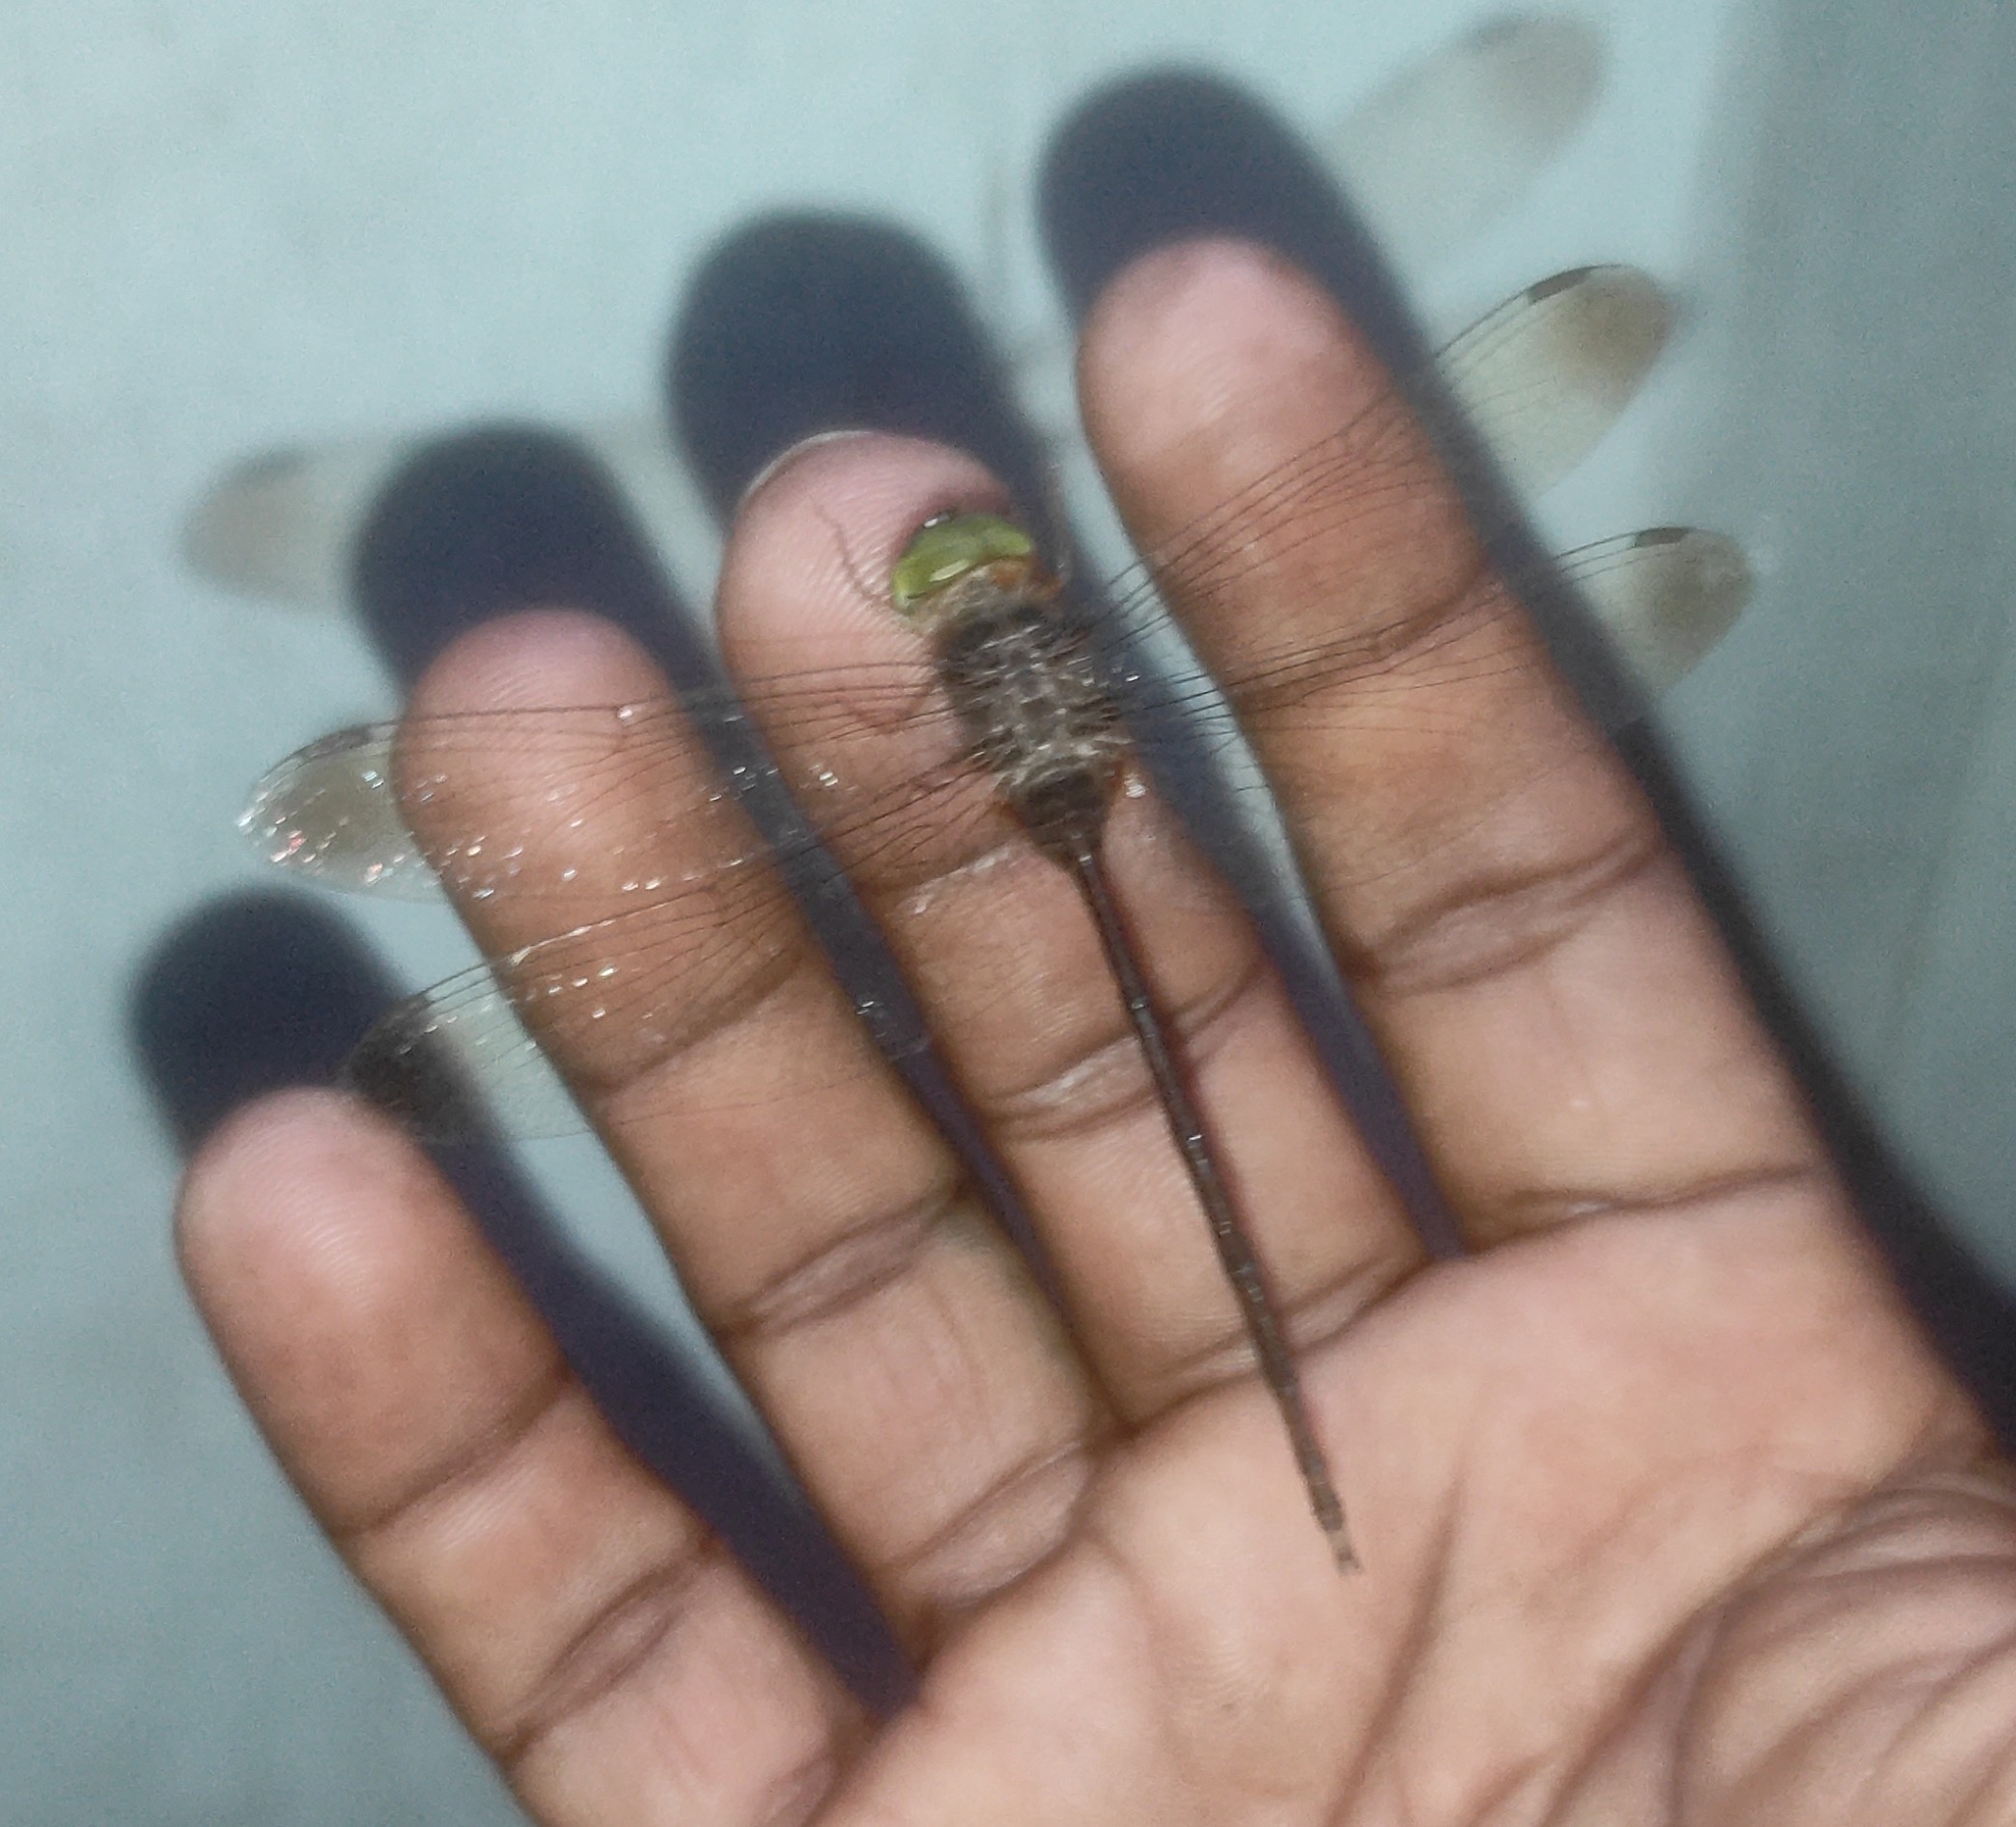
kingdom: Animalia
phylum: Arthropoda
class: Insecta
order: Odonata
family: Libellulidae
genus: Zyxomma
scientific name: Zyxomma petiolatum
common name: Dingy dusk-darter
